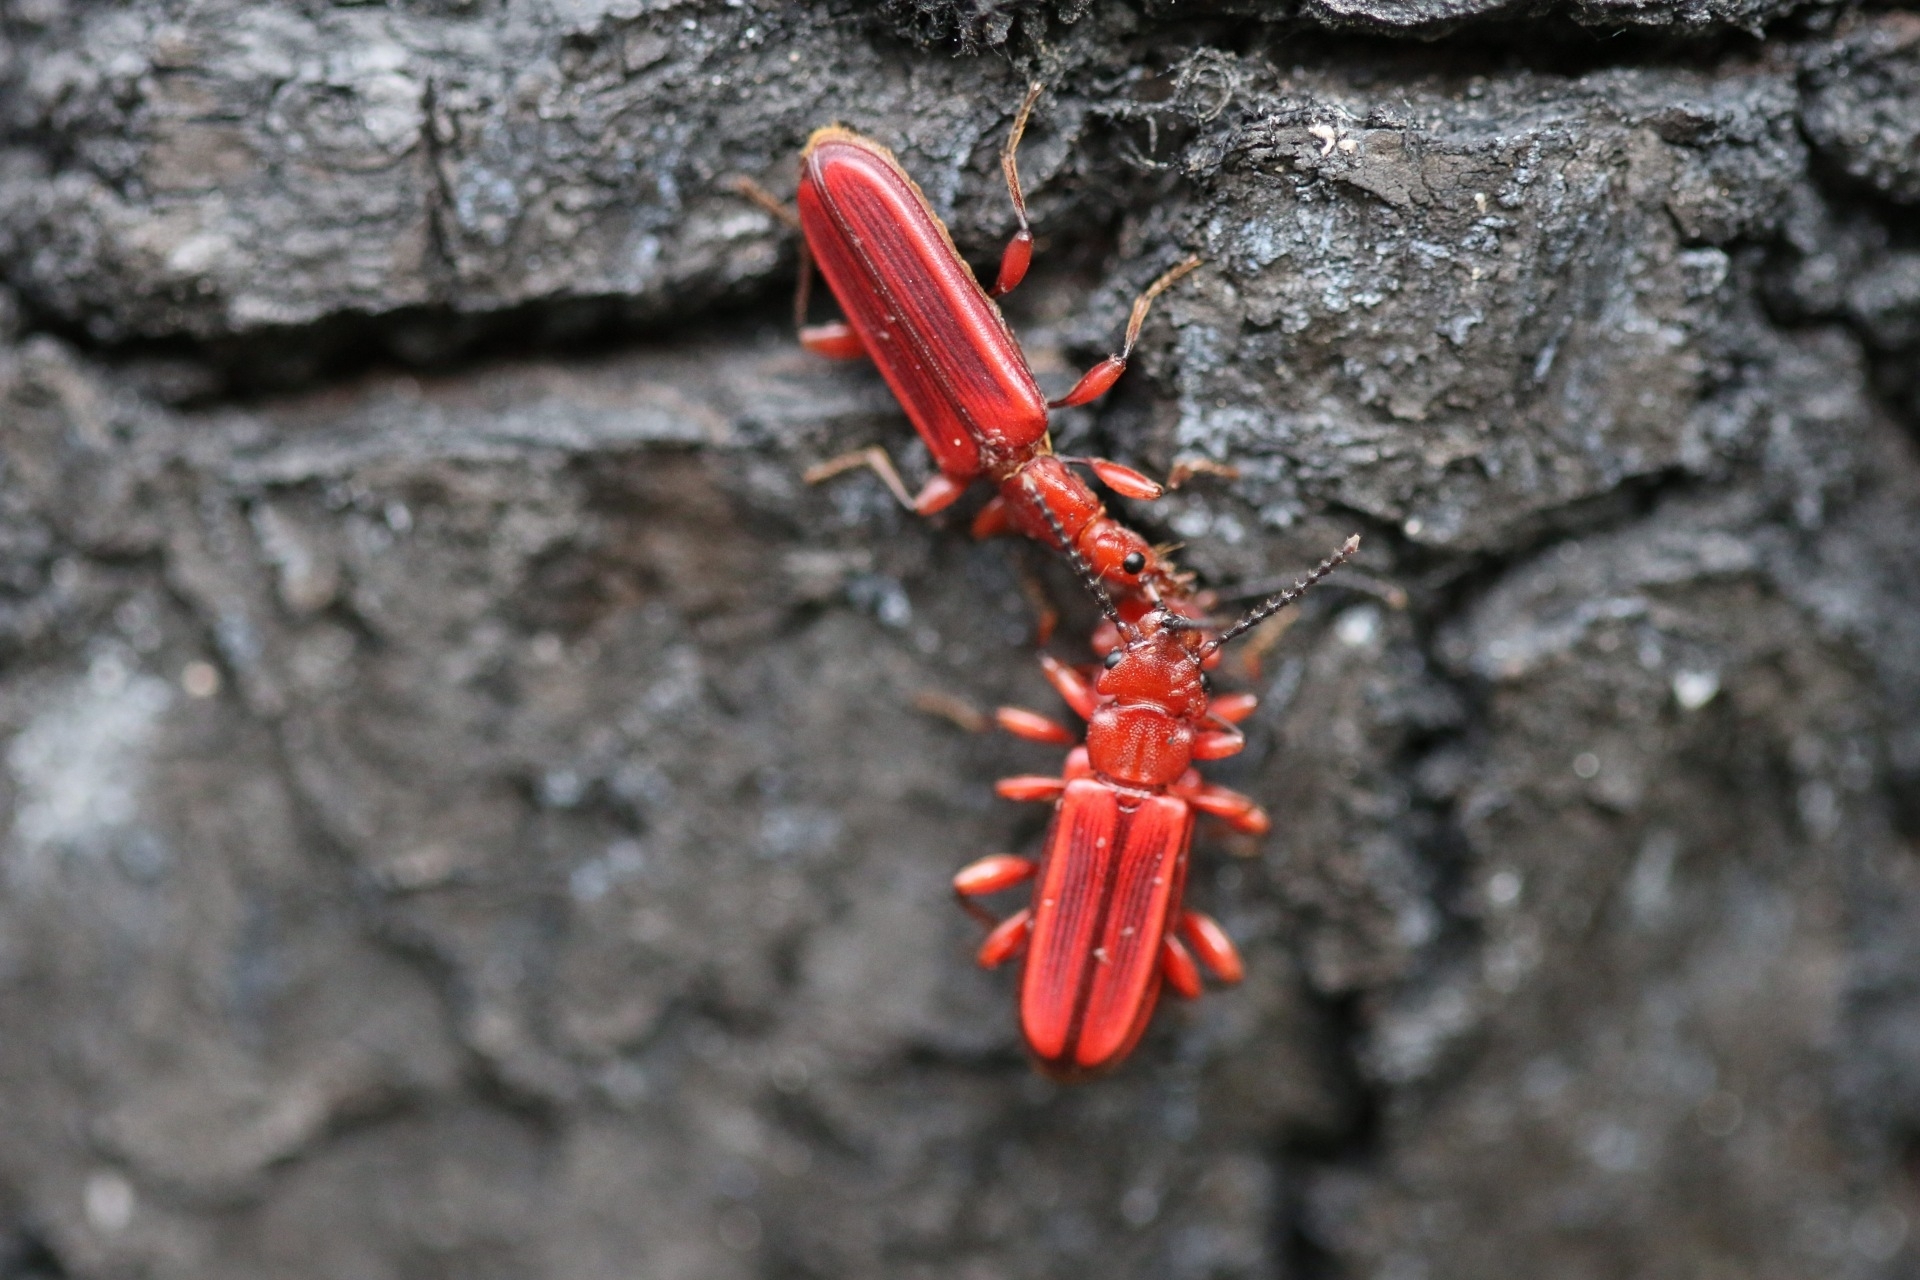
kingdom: Animalia
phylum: Arthropoda
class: Insecta
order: Coleoptera
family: Cucujidae
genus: Cucujus
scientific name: Cucujus clavipes
